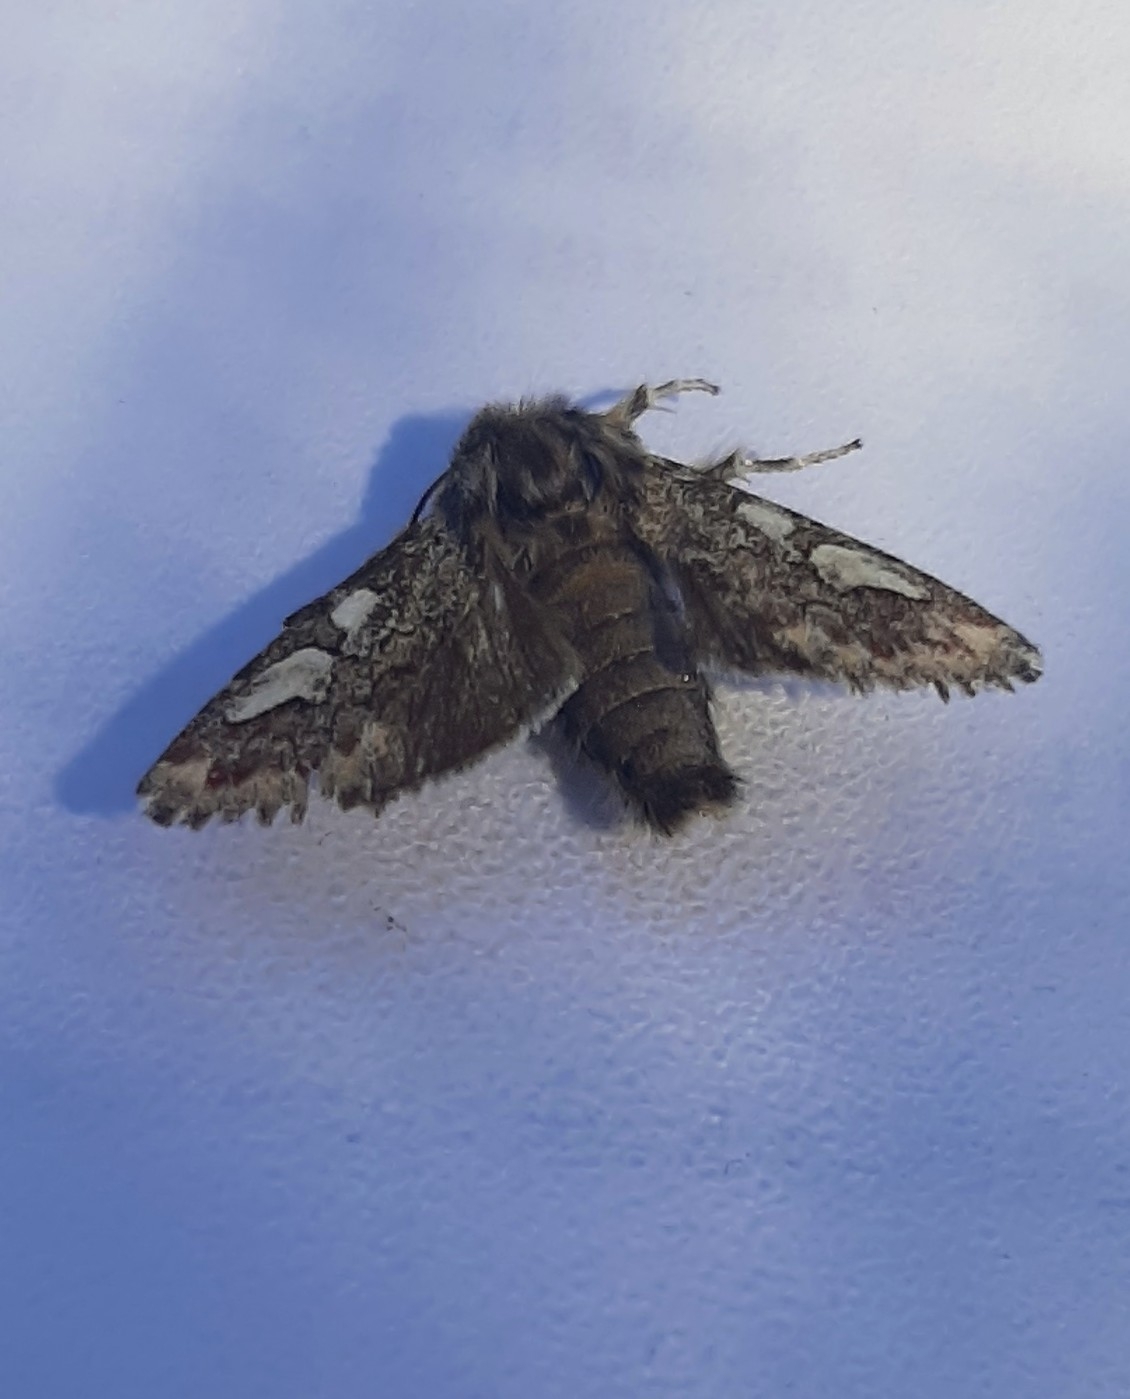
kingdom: Animalia
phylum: Arthropoda
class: Insecta
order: Lepidoptera
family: Noctuidae
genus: Panolis
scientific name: Panolis flammea
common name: Pine beauty
